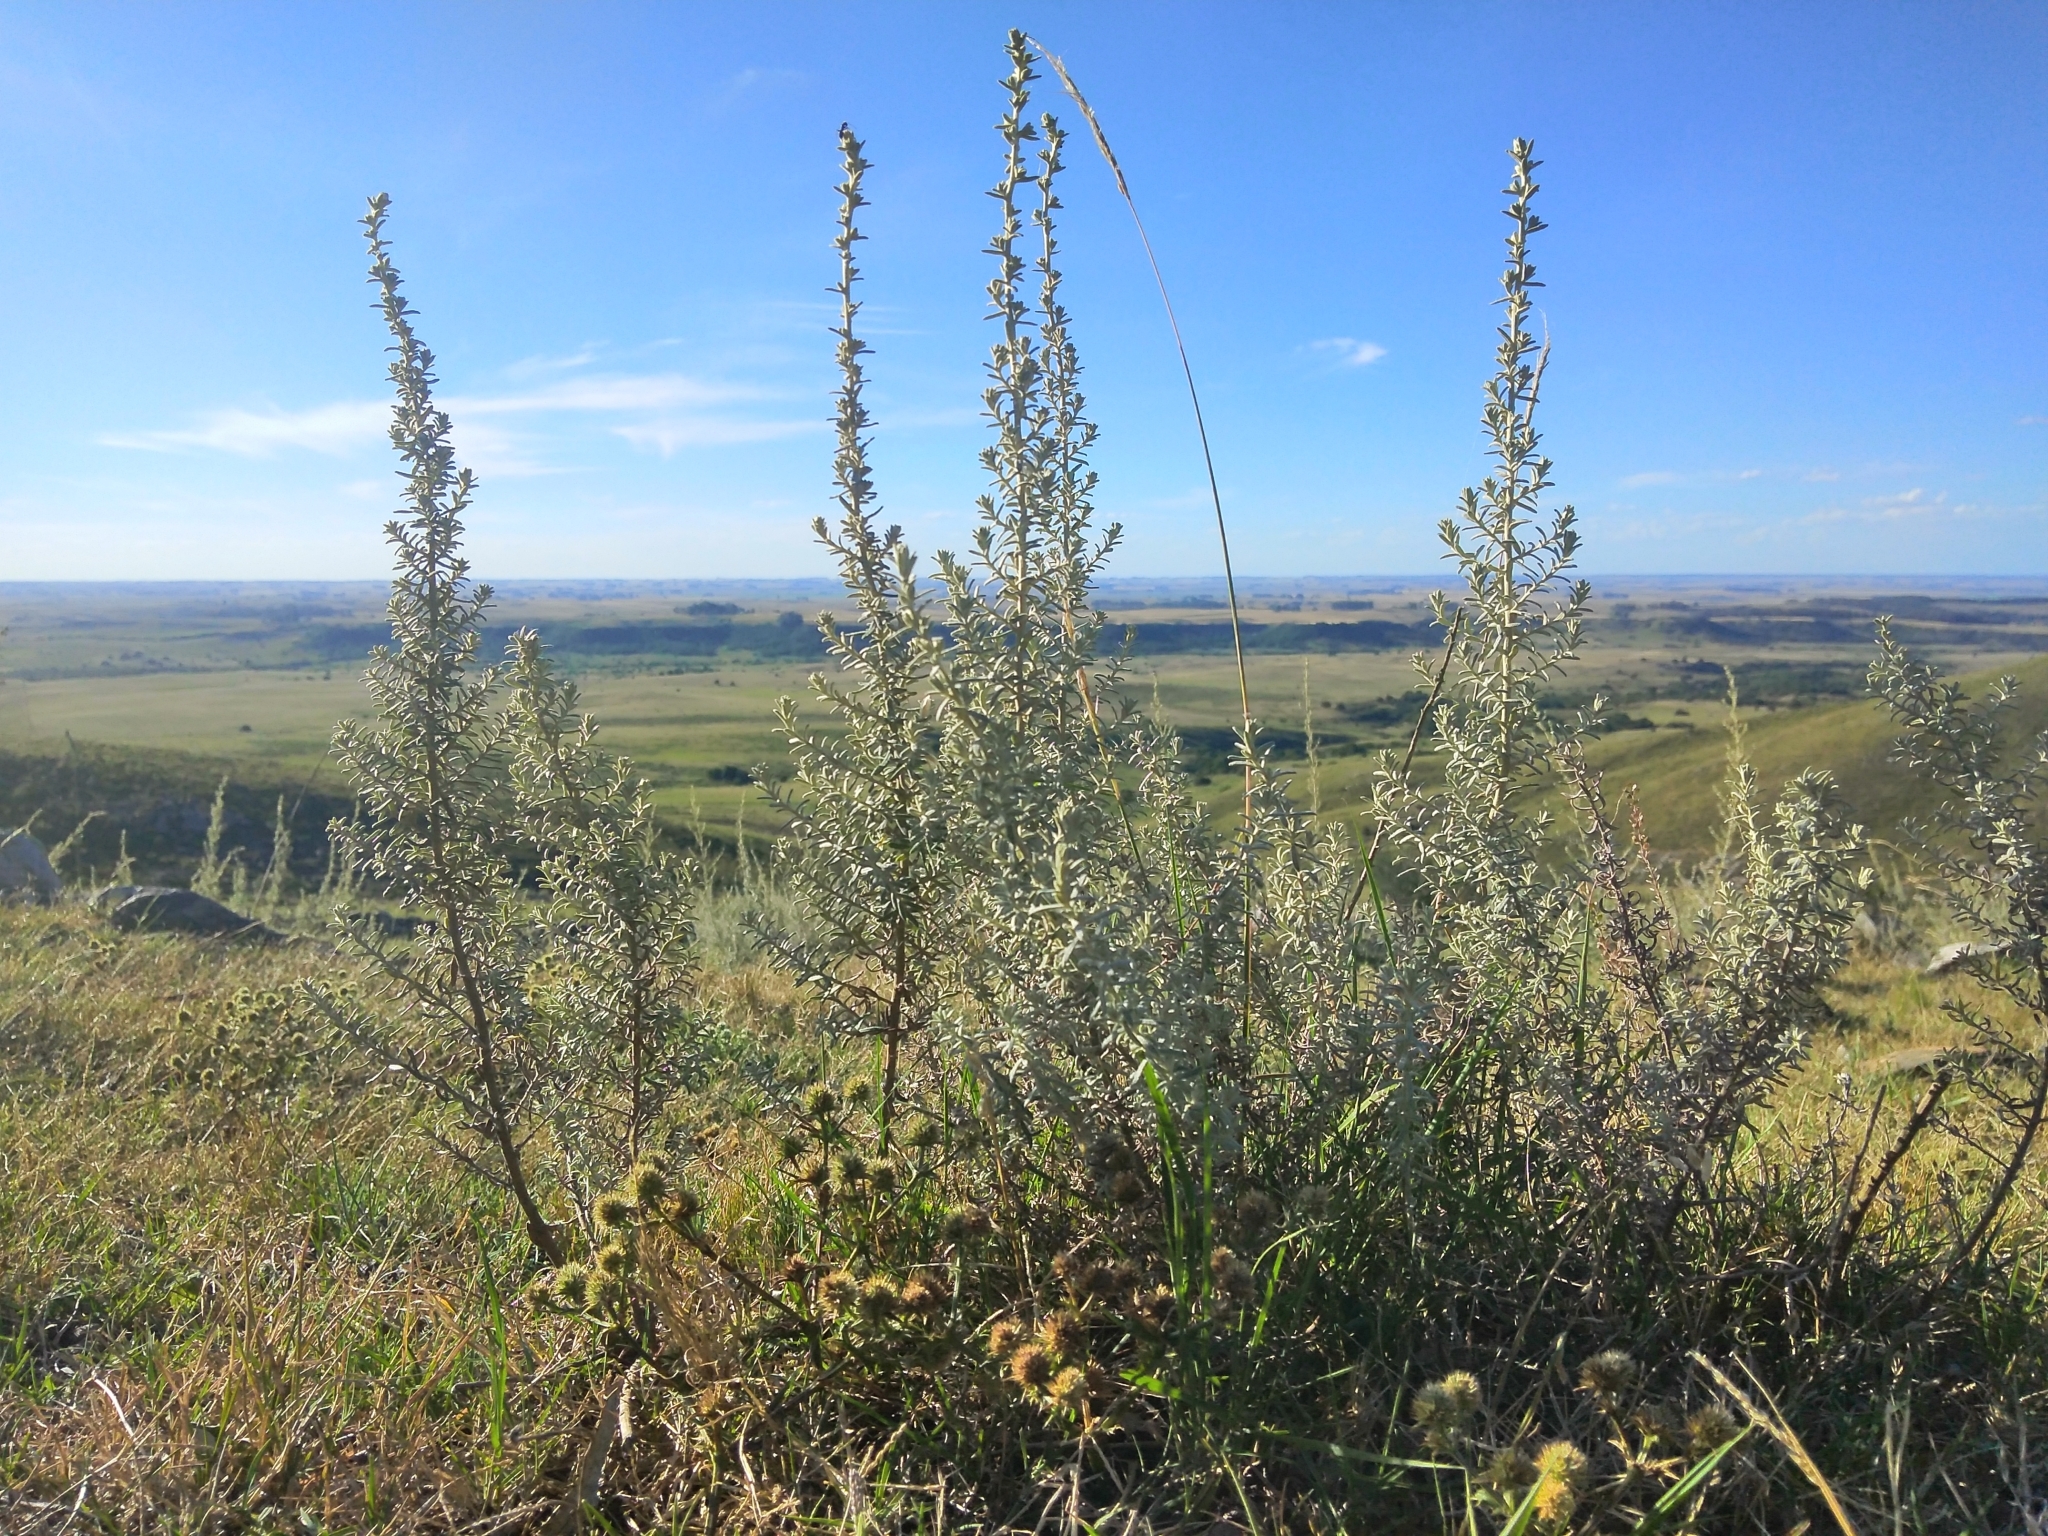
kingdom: Plantae
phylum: Tracheophyta
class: Magnoliopsida
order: Asterales
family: Asteraceae
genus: Baccharis
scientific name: Baccharis ochracea
